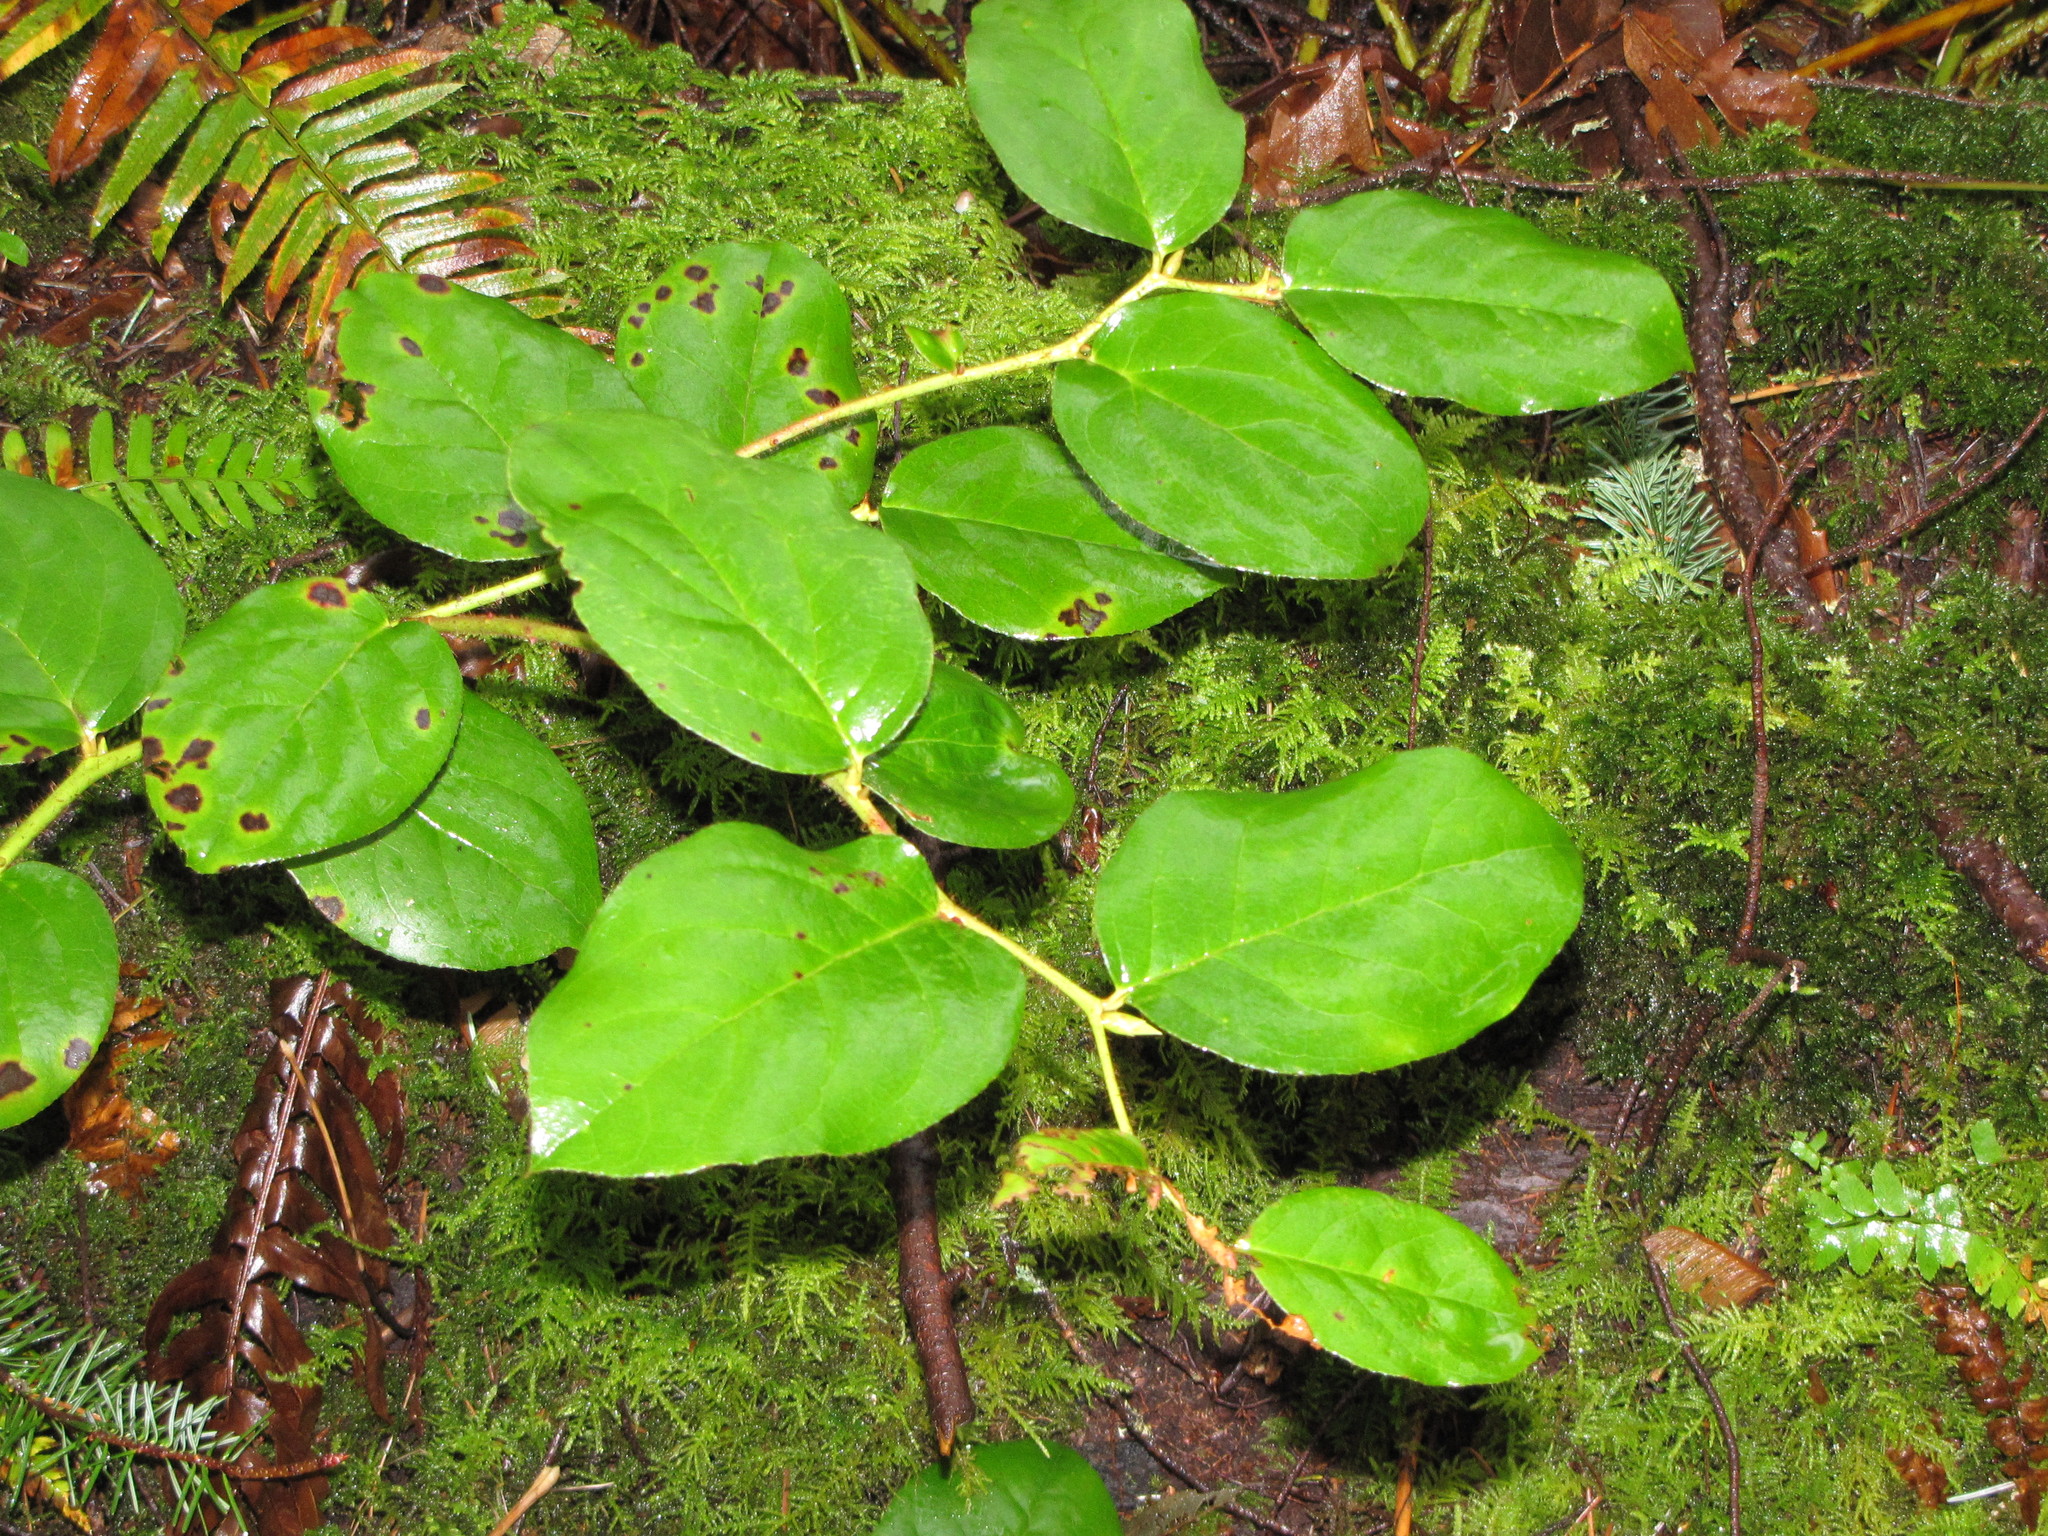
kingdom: Plantae
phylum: Tracheophyta
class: Magnoliopsida
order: Ericales
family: Ericaceae
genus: Gaultheria
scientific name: Gaultheria shallon
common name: Shallon
